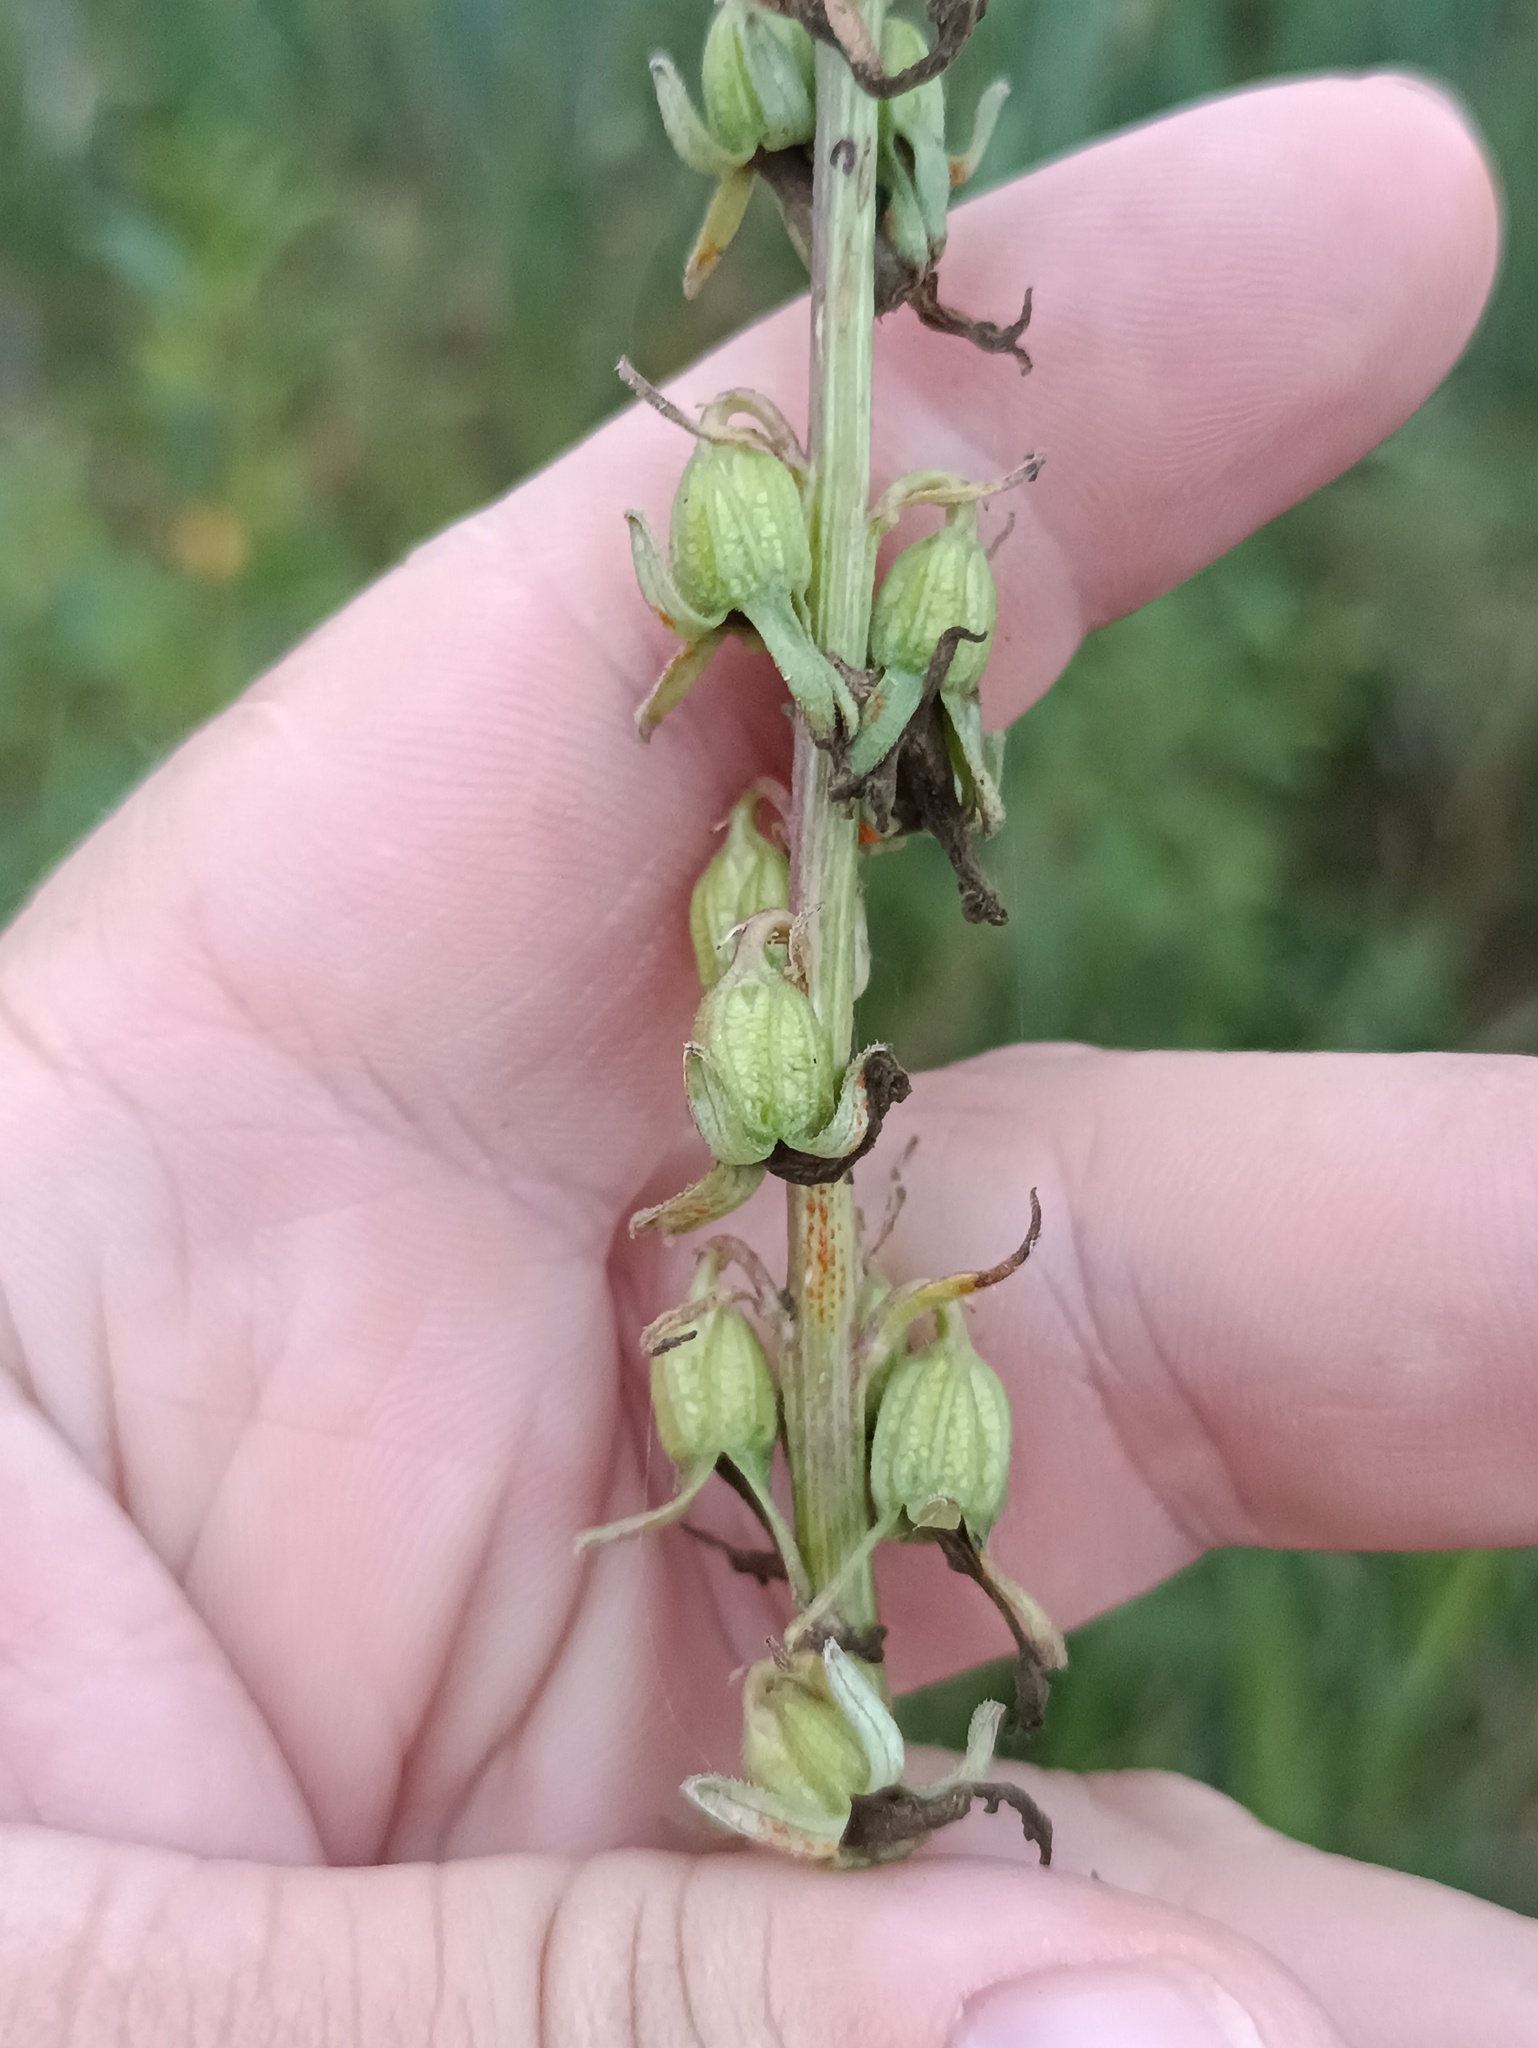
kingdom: Plantae
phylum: Tracheophyta
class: Magnoliopsida
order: Asterales
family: Campanulaceae
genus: Campanula
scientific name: Campanula rapunculoides
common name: Creeping bellflower
